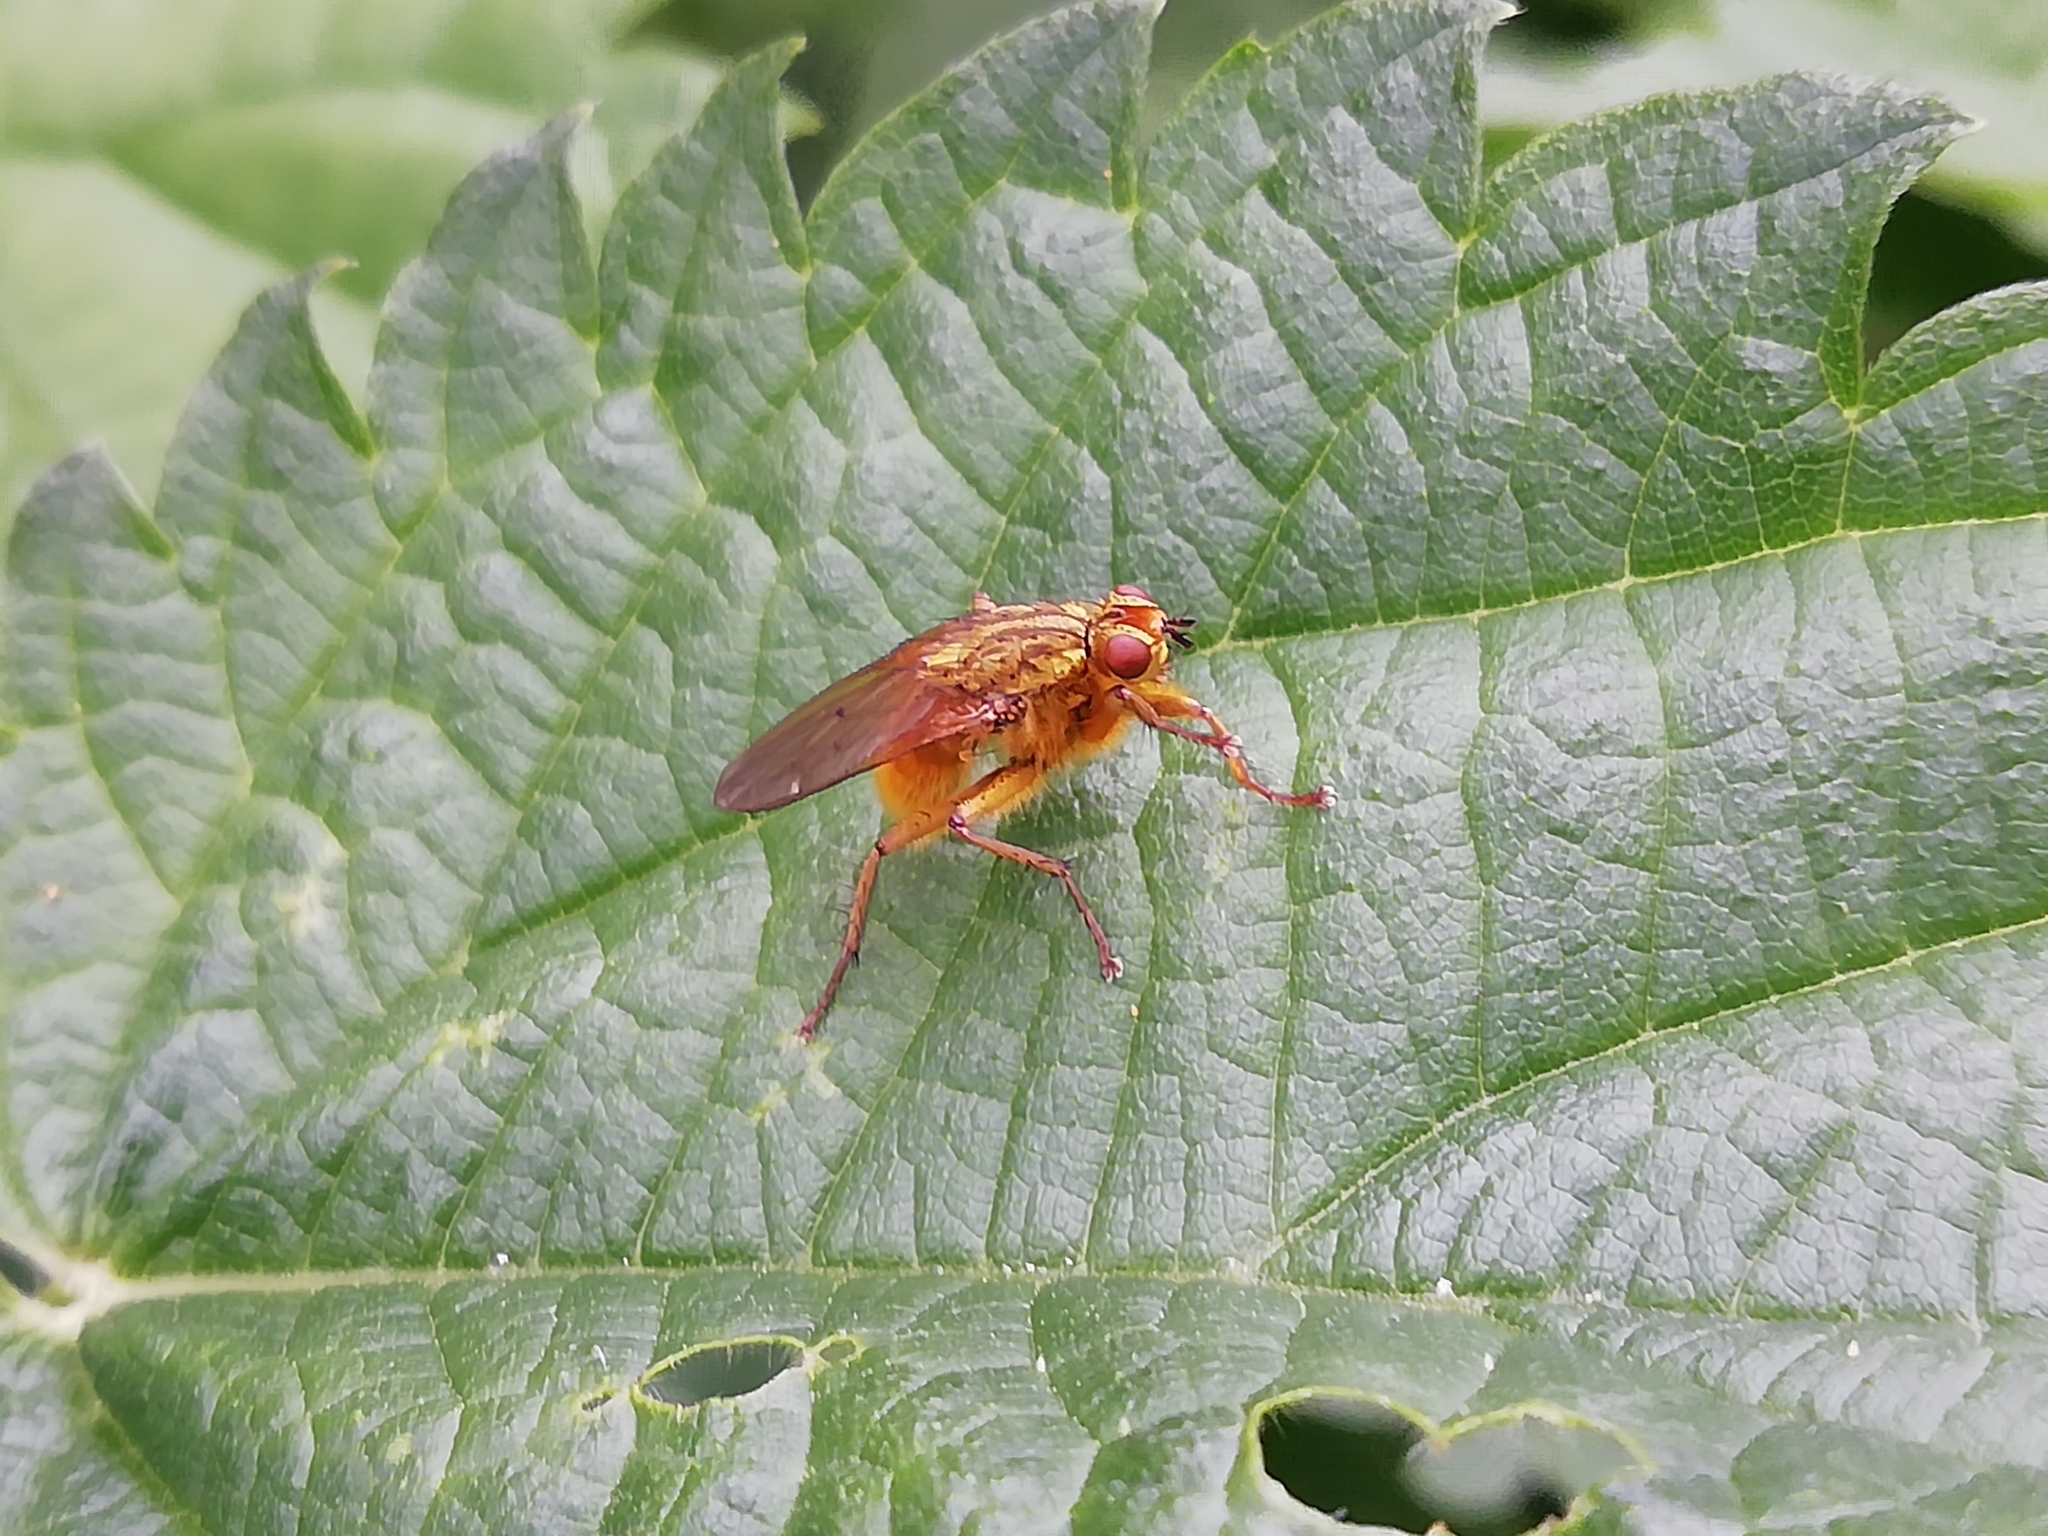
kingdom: Animalia
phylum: Arthropoda
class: Insecta
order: Diptera
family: Scathophagidae
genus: Scathophaga
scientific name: Scathophaga stercoraria
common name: Yellow dung fly
